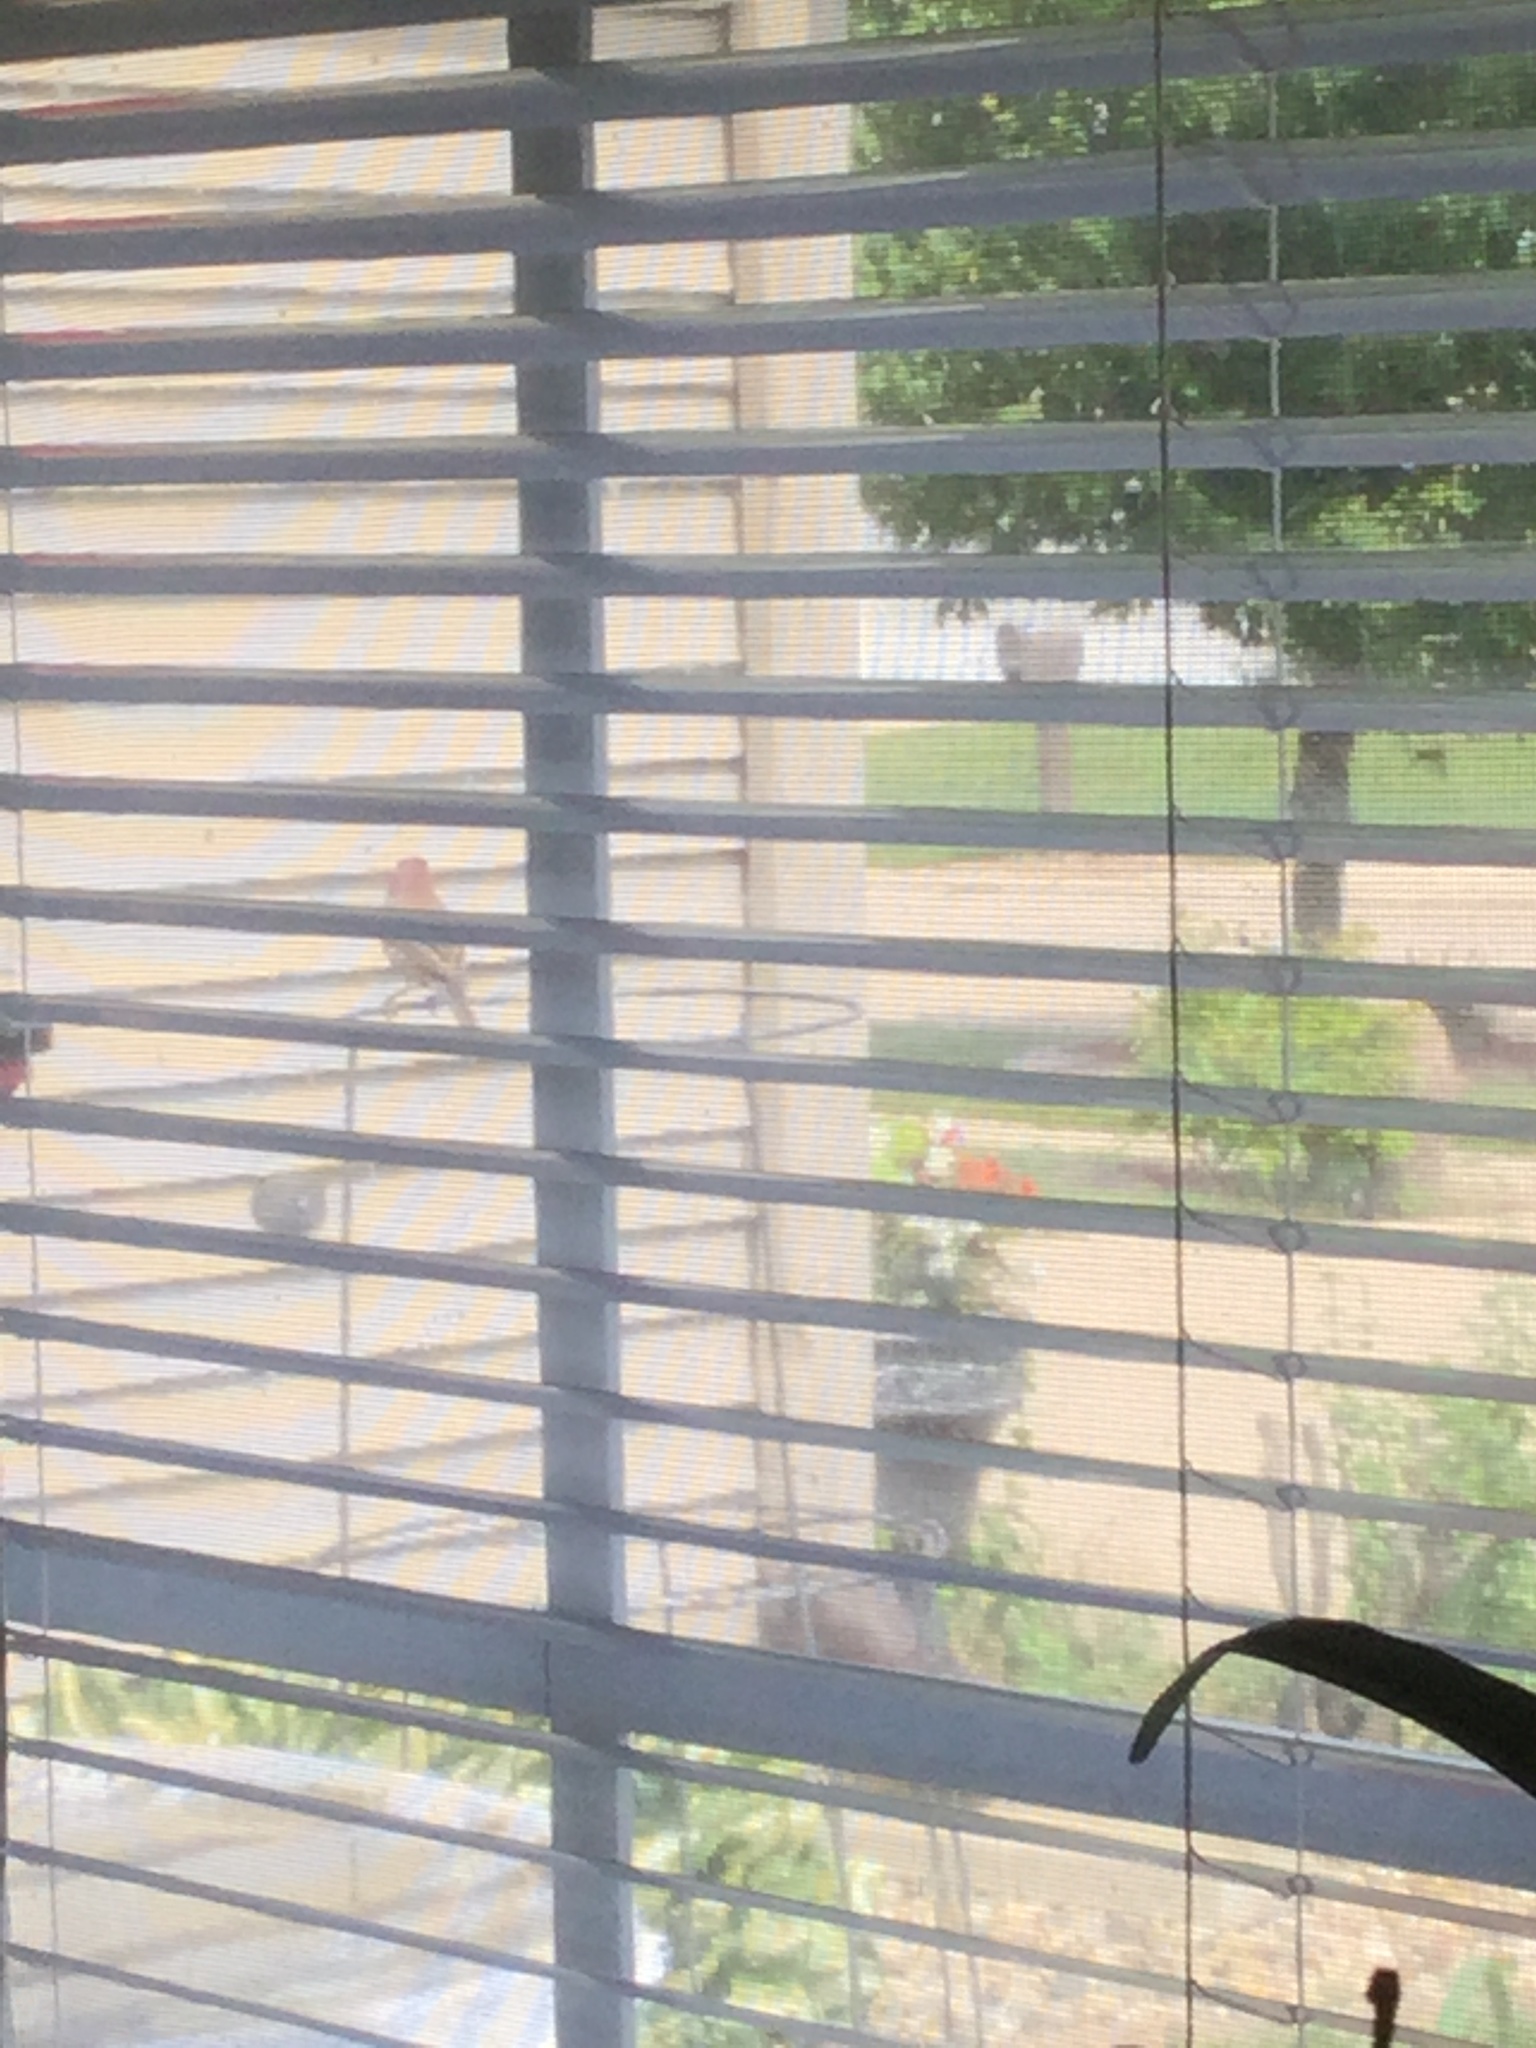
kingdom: Animalia
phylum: Chordata
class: Aves
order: Passeriformes
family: Fringillidae
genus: Haemorhous
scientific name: Haemorhous mexicanus
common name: House finch
